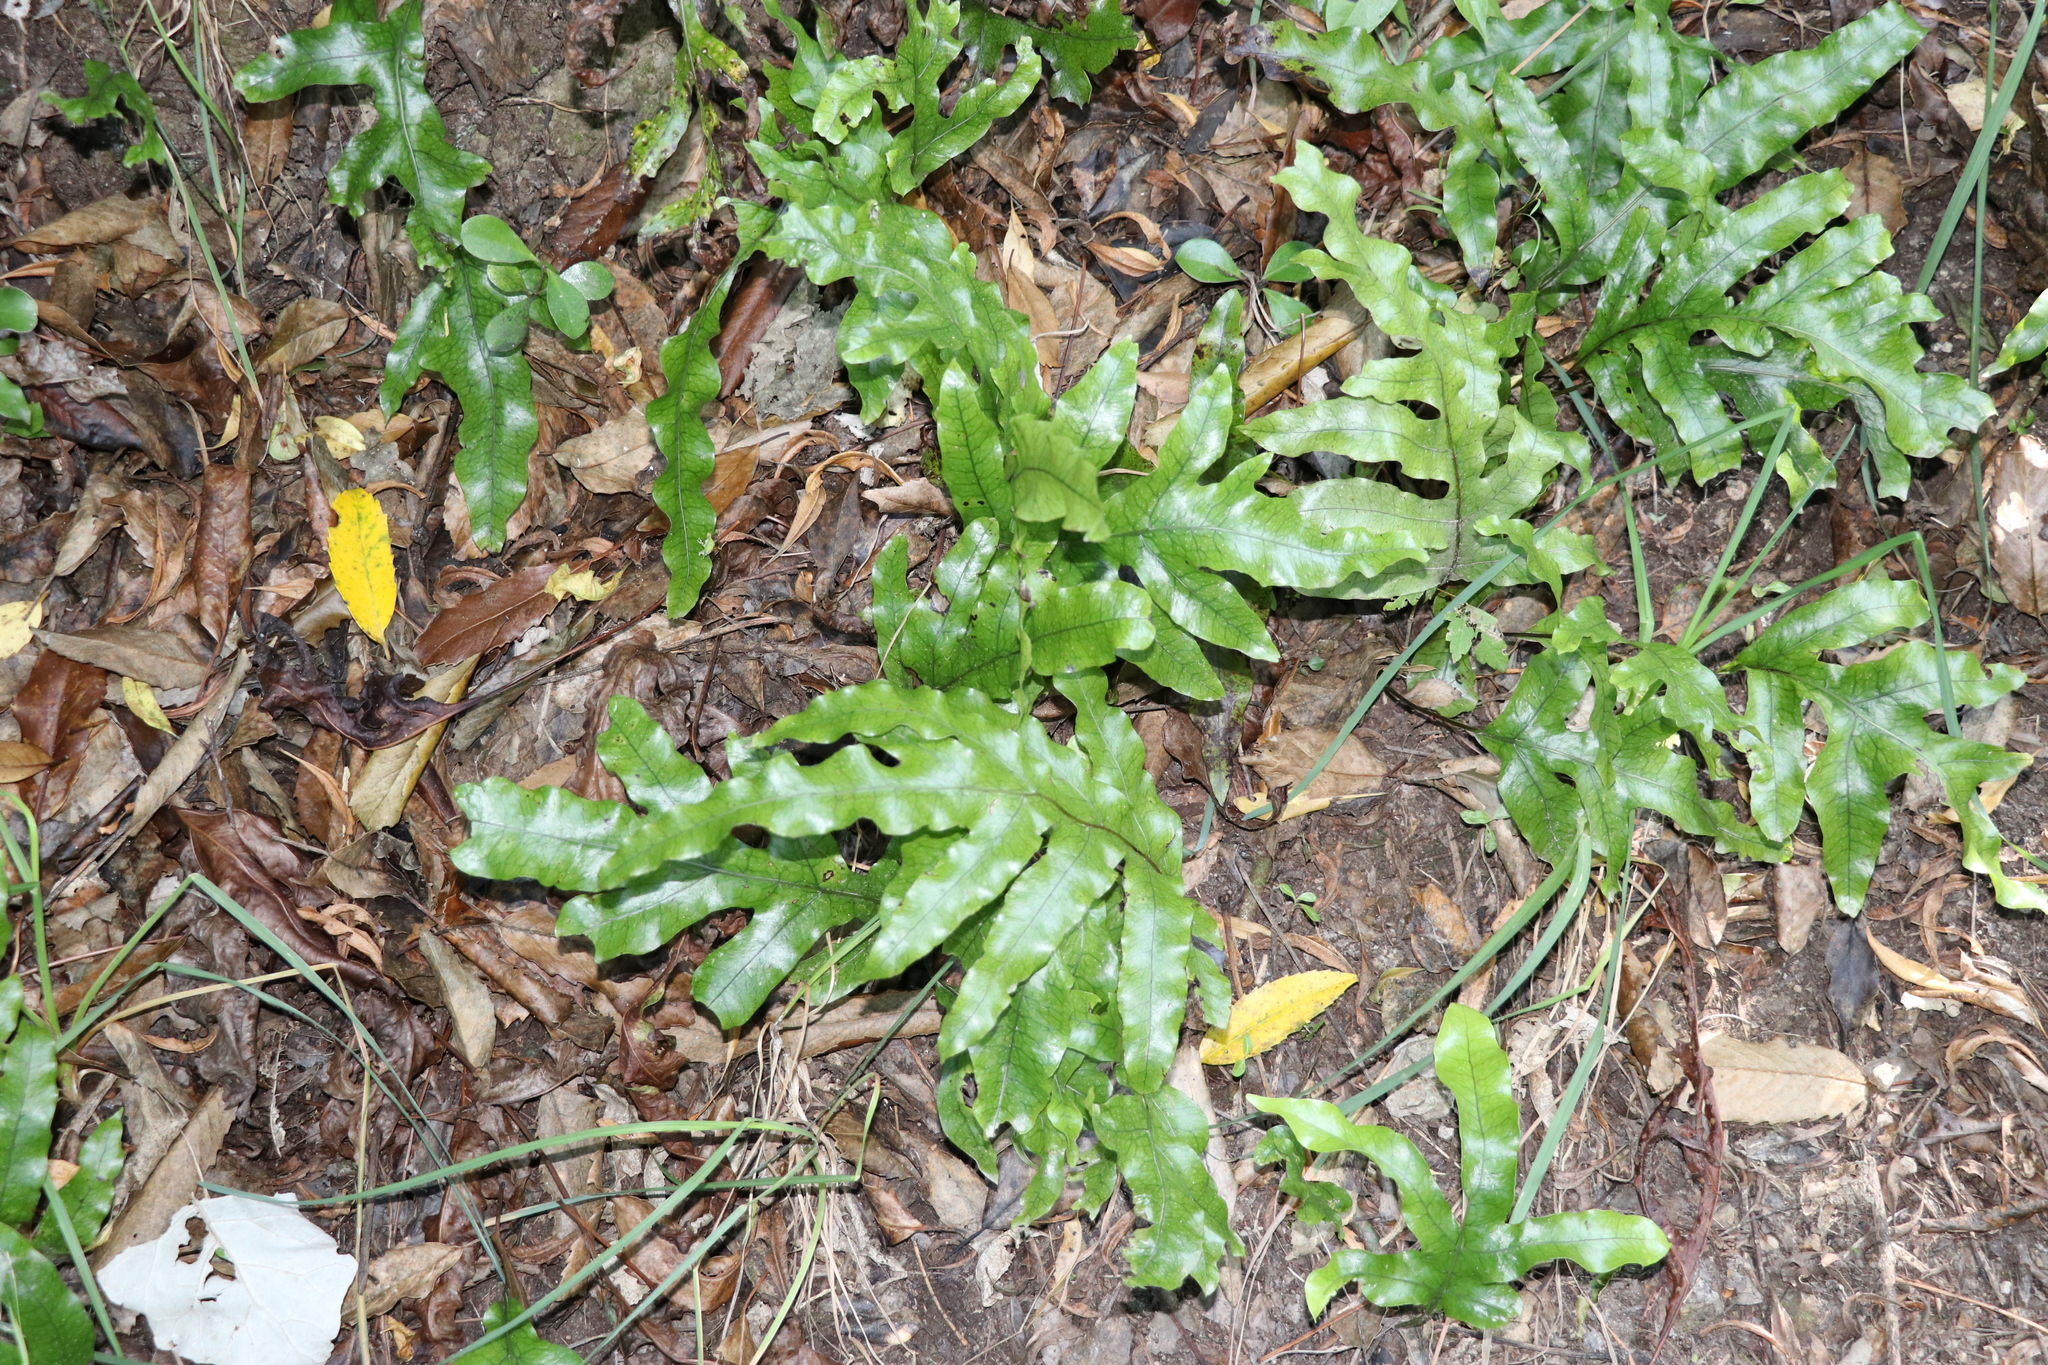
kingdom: Plantae
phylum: Tracheophyta
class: Polypodiopsida
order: Polypodiales
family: Polypodiaceae
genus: Lecanopteris
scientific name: Lecanopteris pustulata
